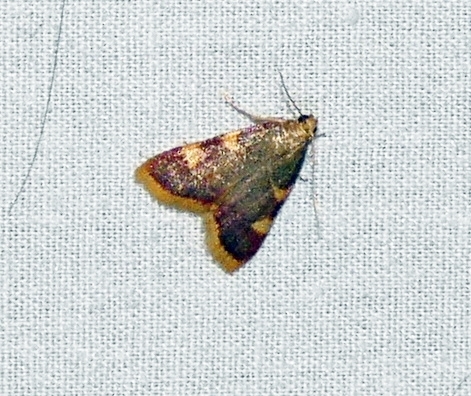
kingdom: Animalia
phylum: Arthropoda
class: Insecta
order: Lepidoptera
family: Pyralidae
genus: Hypsopygia
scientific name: Hypsopygia costalis
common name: Gold triangle
